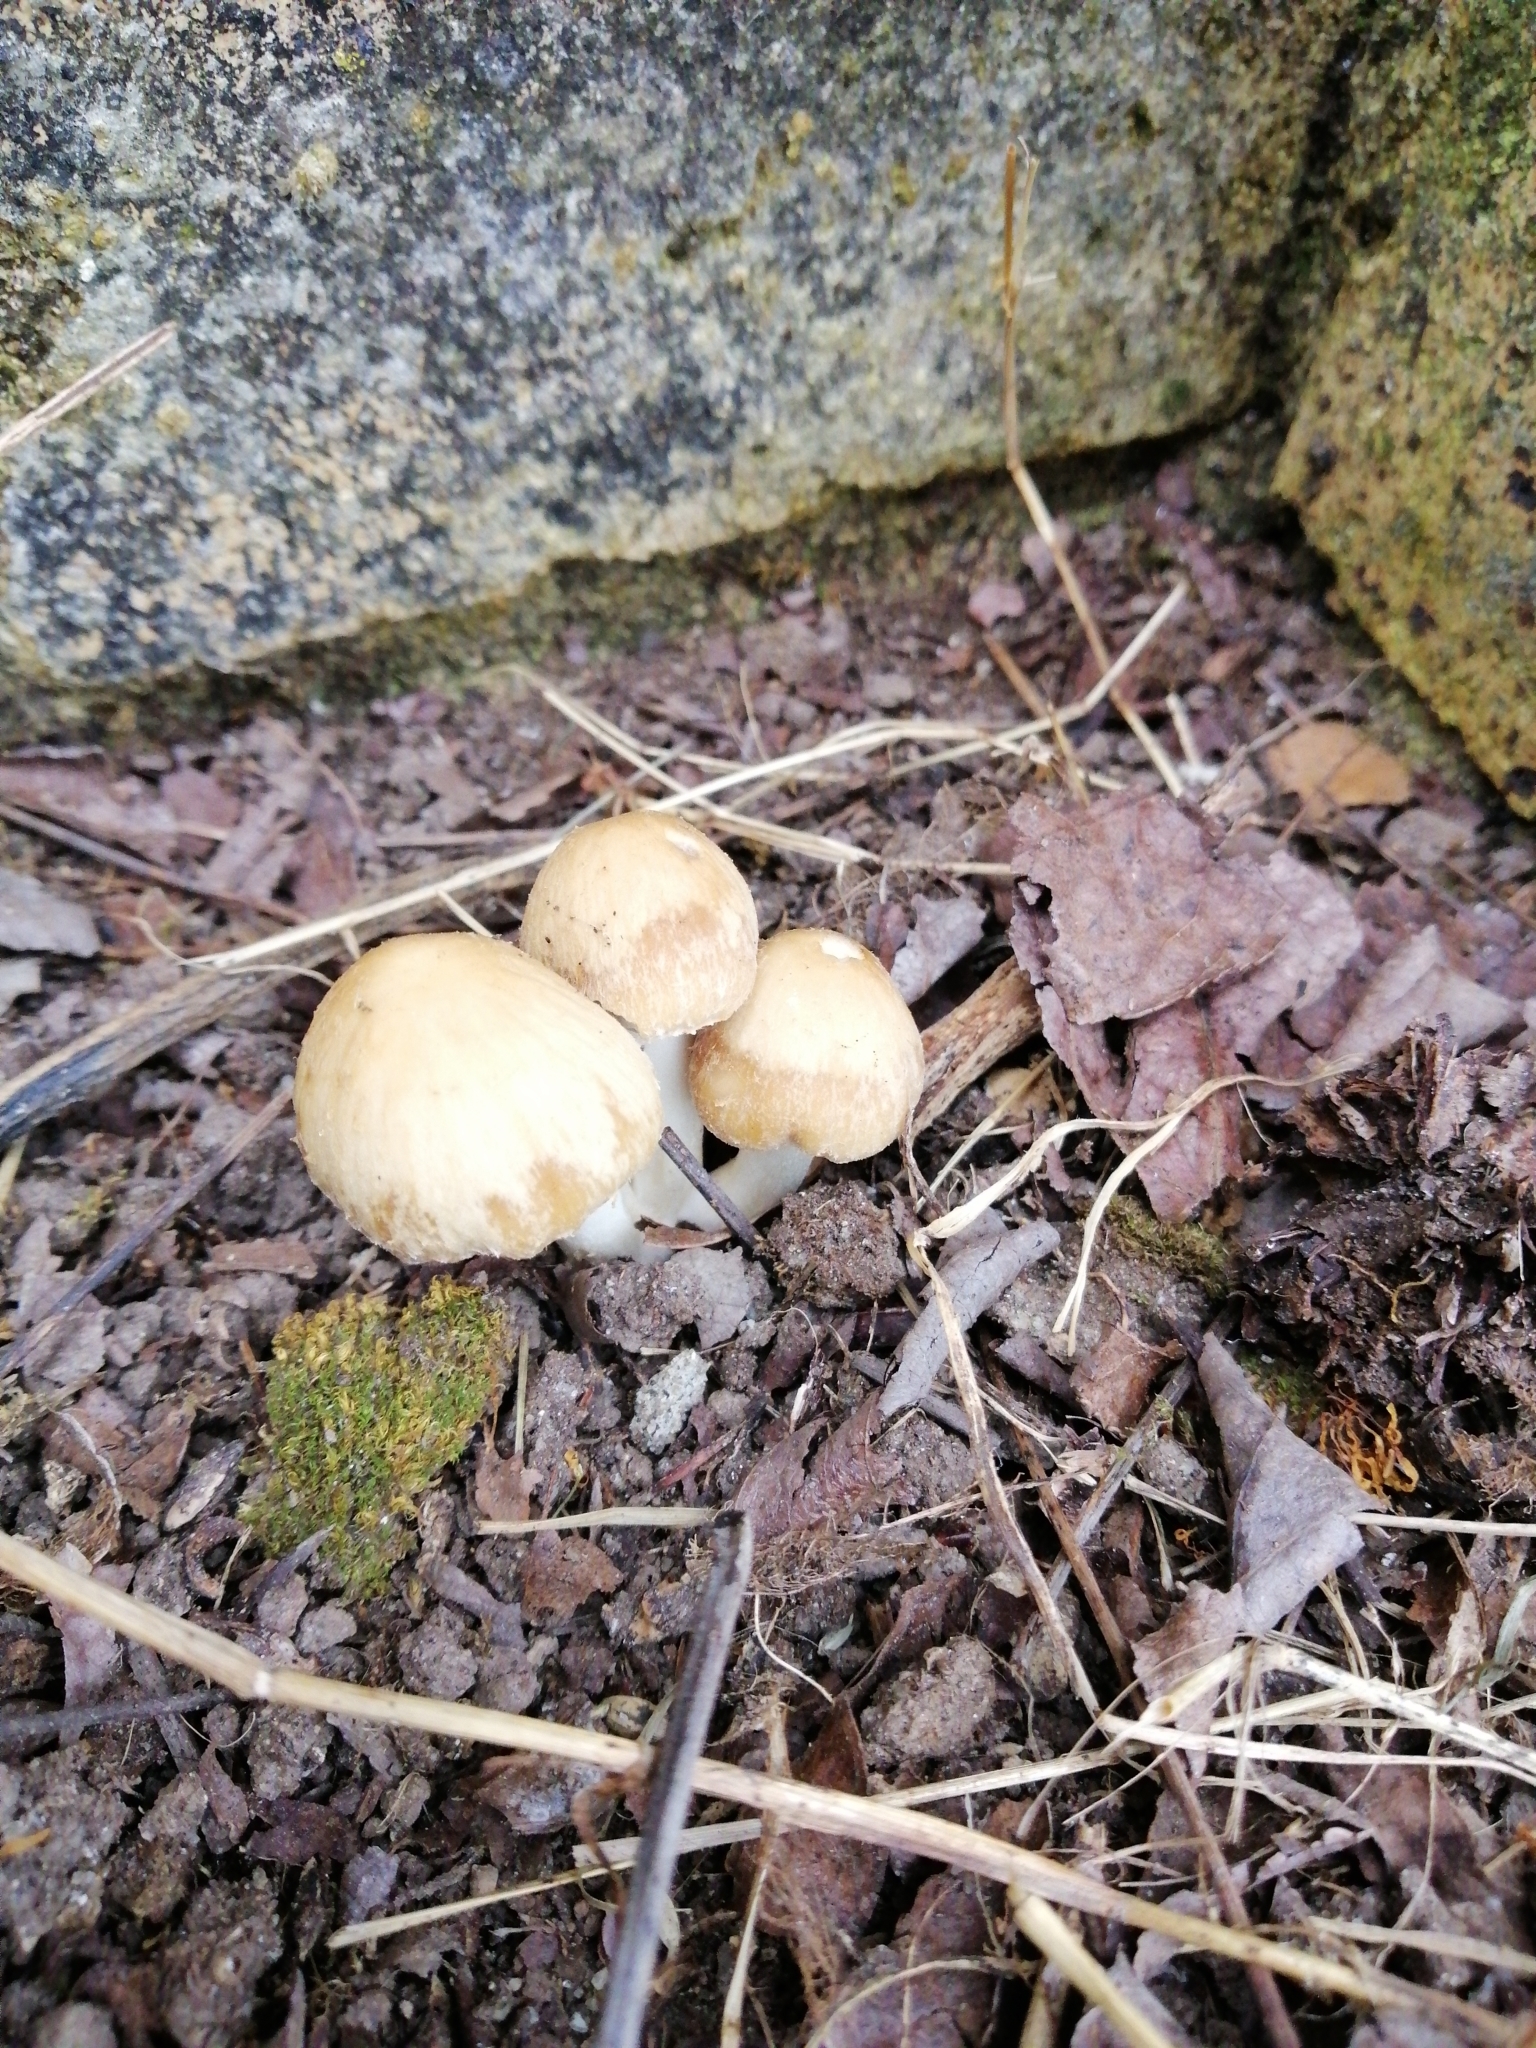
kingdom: Fungi
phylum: Basidiomycota
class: Agaricomycetes
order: Agaricales
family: Psathyrellaceae
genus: Candolleomyces
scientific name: Candolleomyces candolleanus
